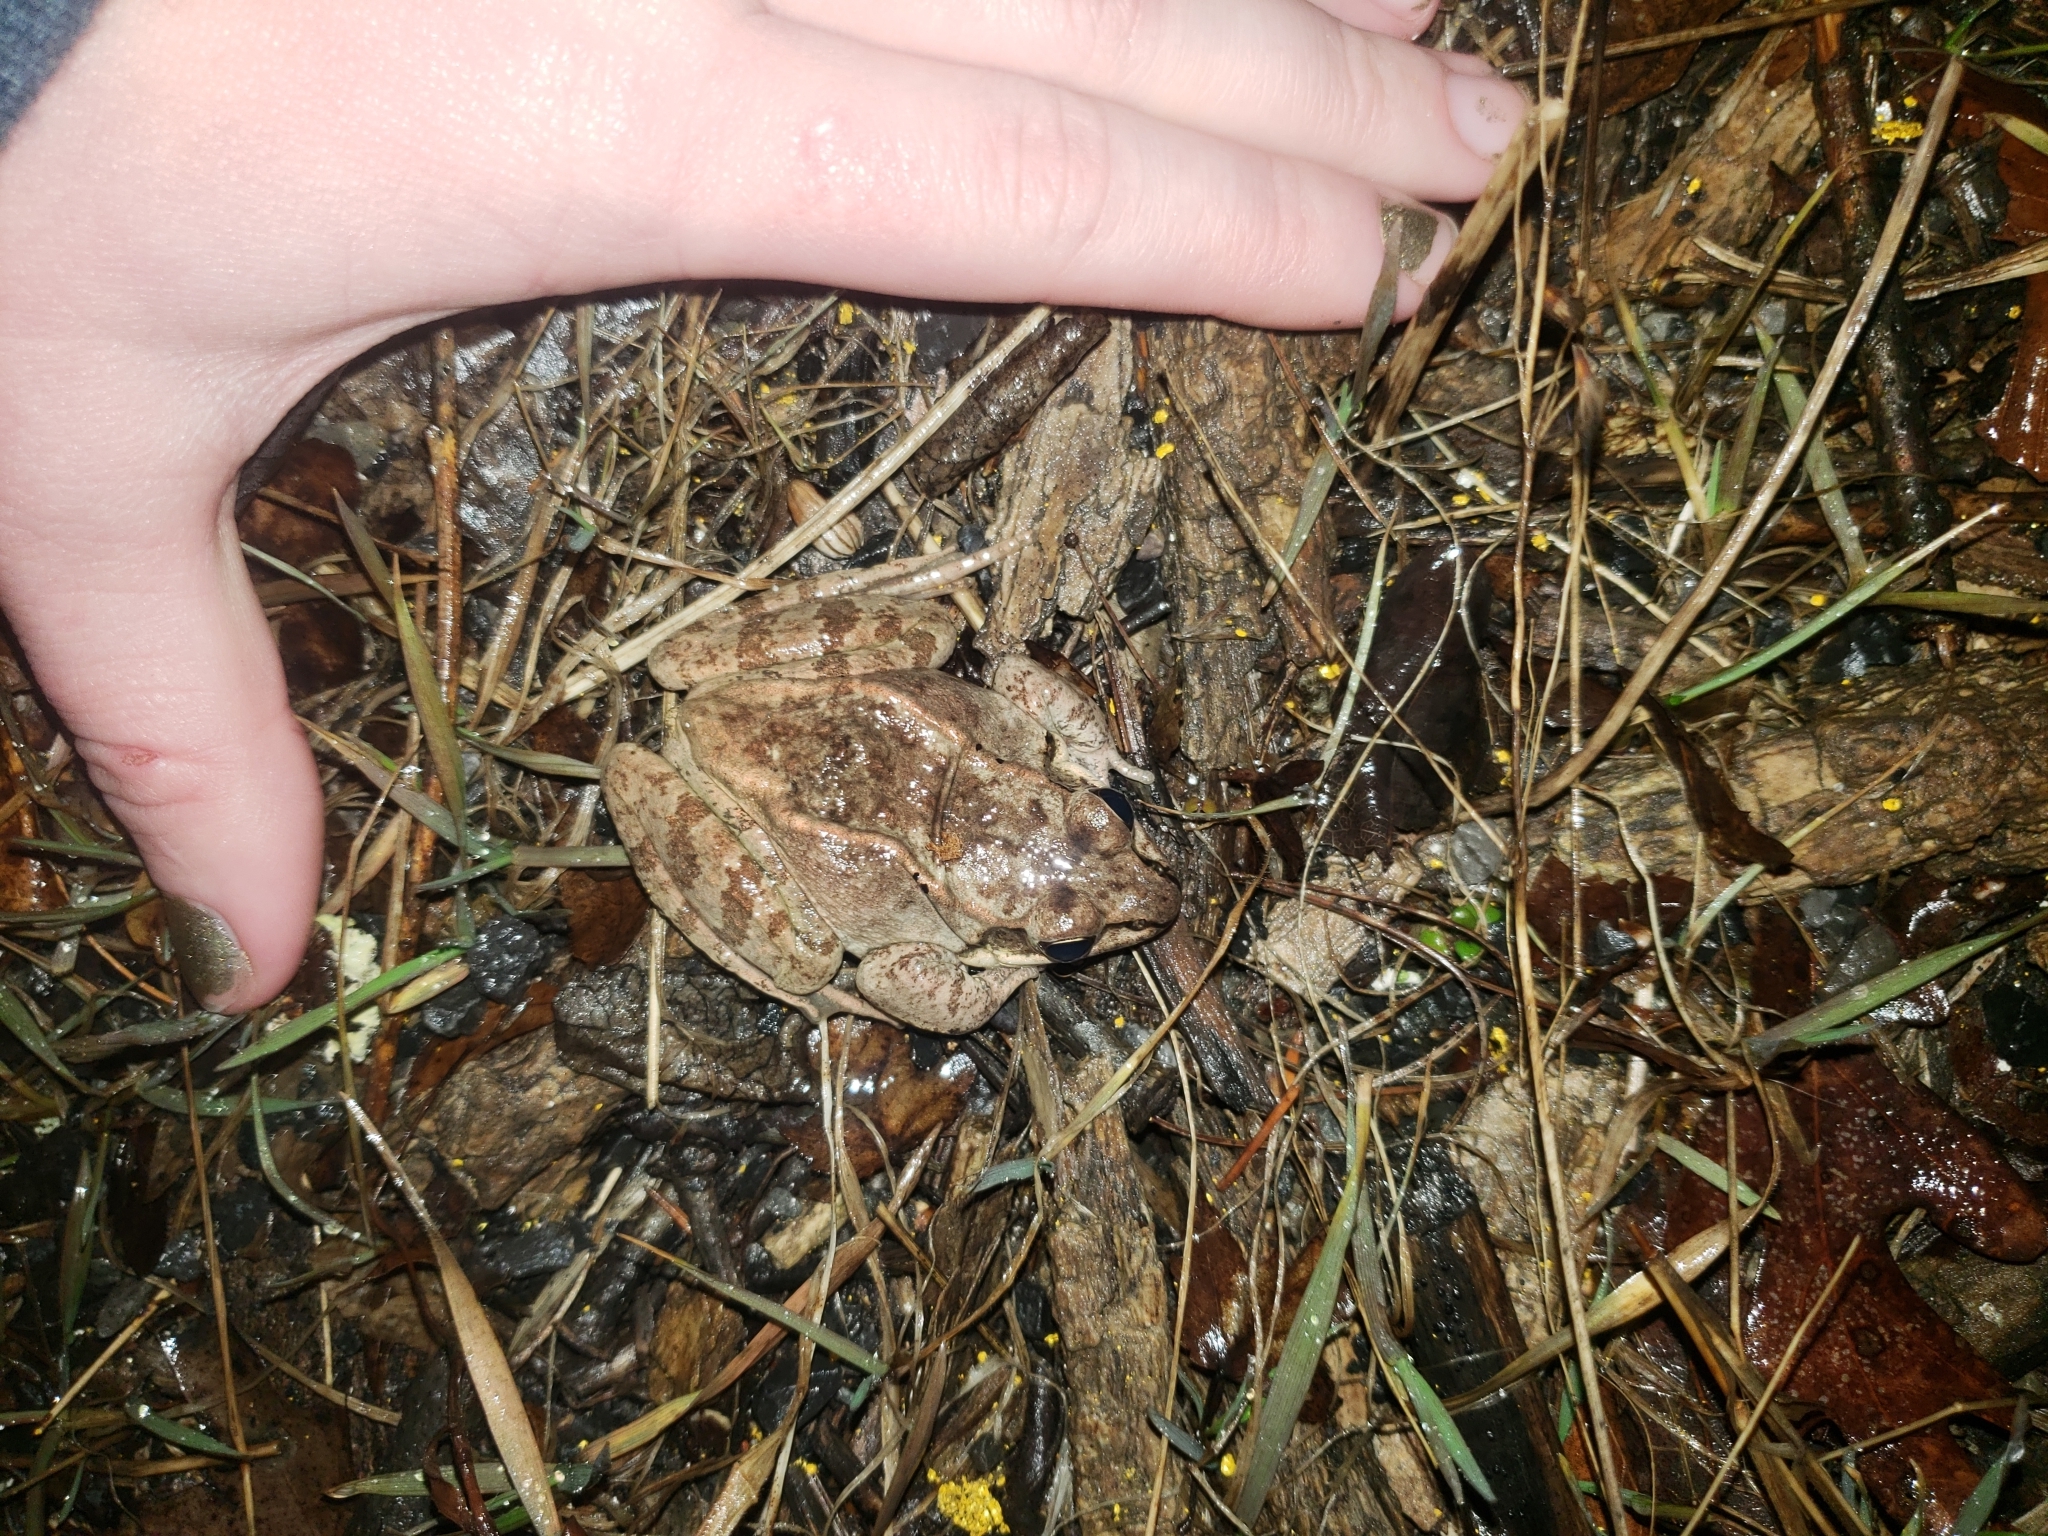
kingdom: Animalia
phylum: Chordata
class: Amphibia
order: Anura
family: Ranidae
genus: Lithobates
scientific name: Lithobates sylvaticus
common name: Wood frog
